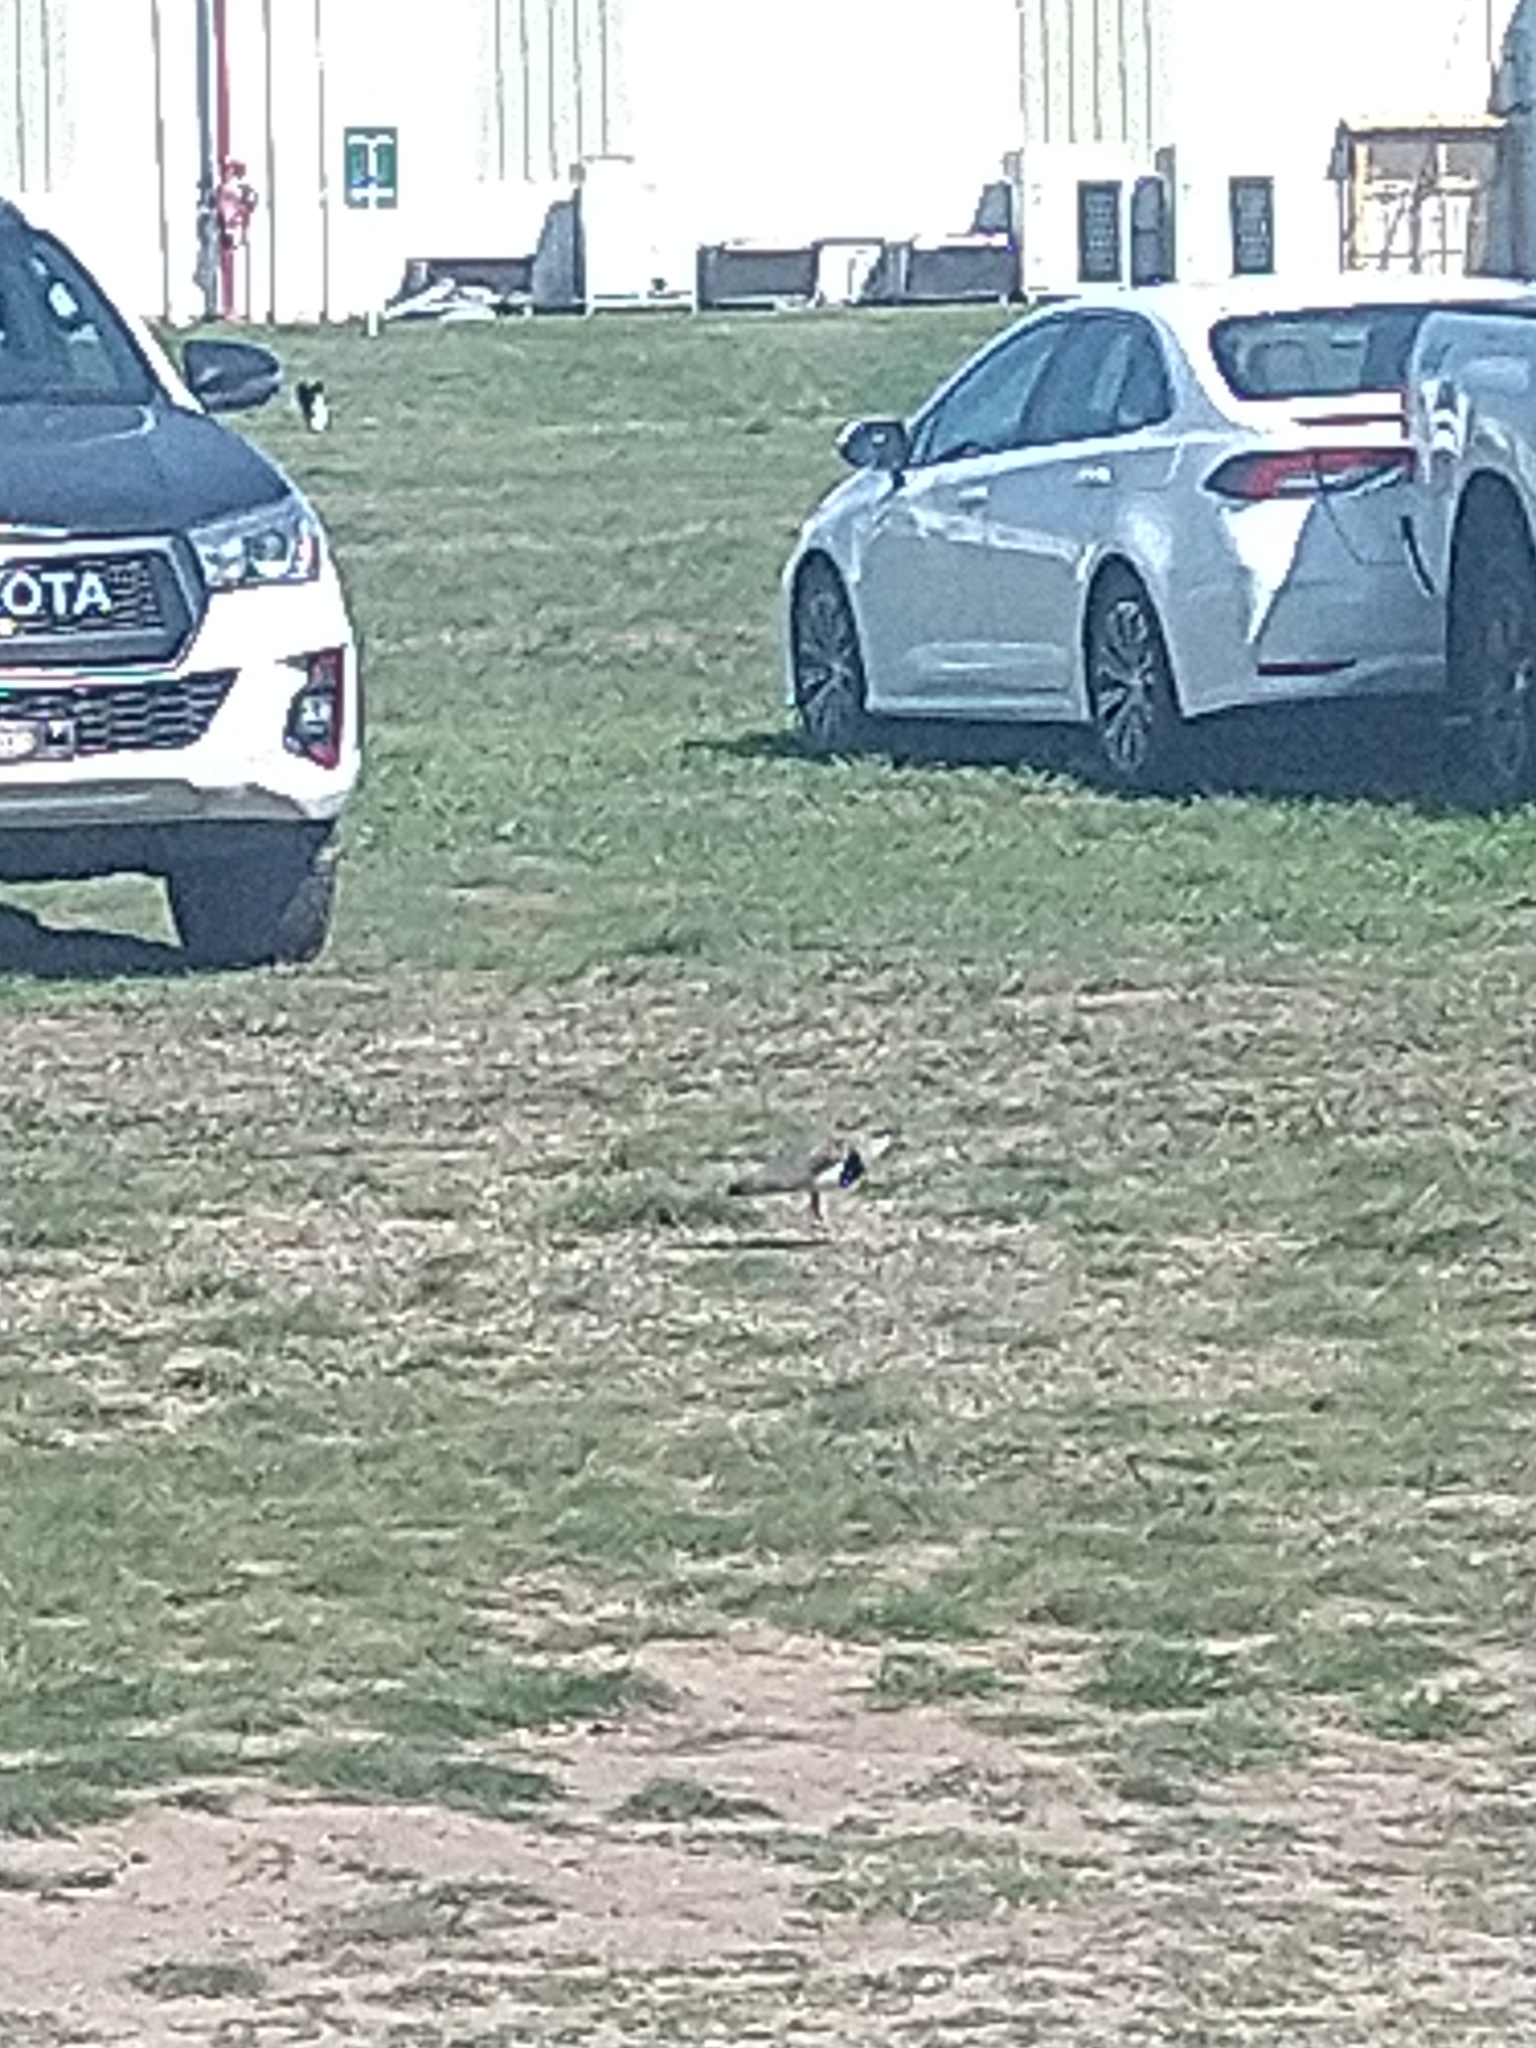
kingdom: Animalia
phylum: Chordata
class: Aves
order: Charadriiformes
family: Charadriidae
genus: Vanellus
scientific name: Vanellus chilensis
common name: Southern lapwing
